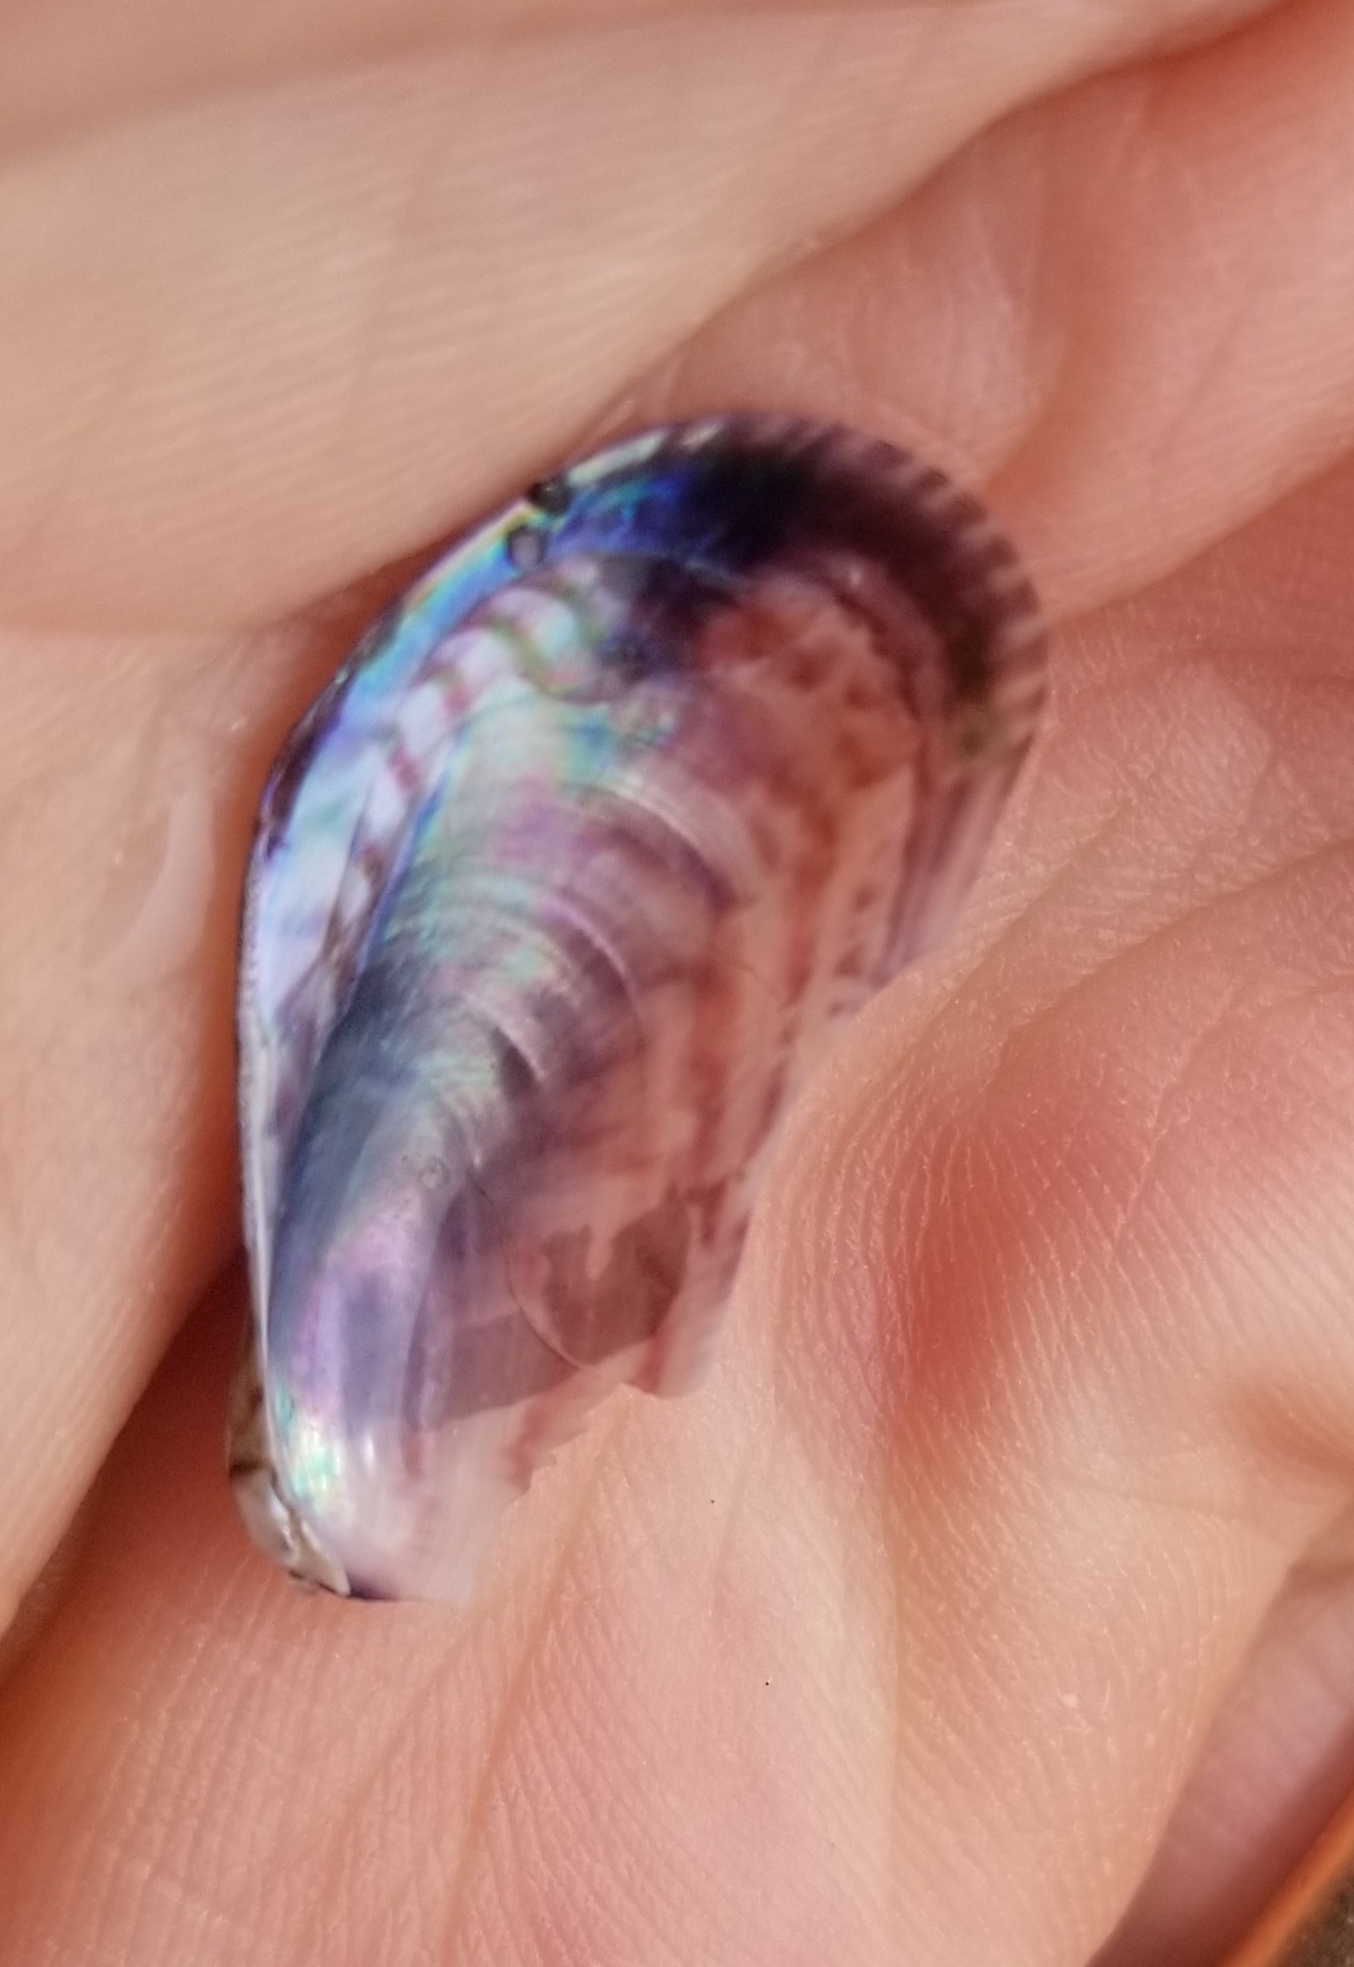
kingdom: Animalia
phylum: Mollusca
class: Bivalvia
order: Mytilida
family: Mytilidae
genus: Arcuatula
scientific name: Arcuatula senhousia
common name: Asian mussel
